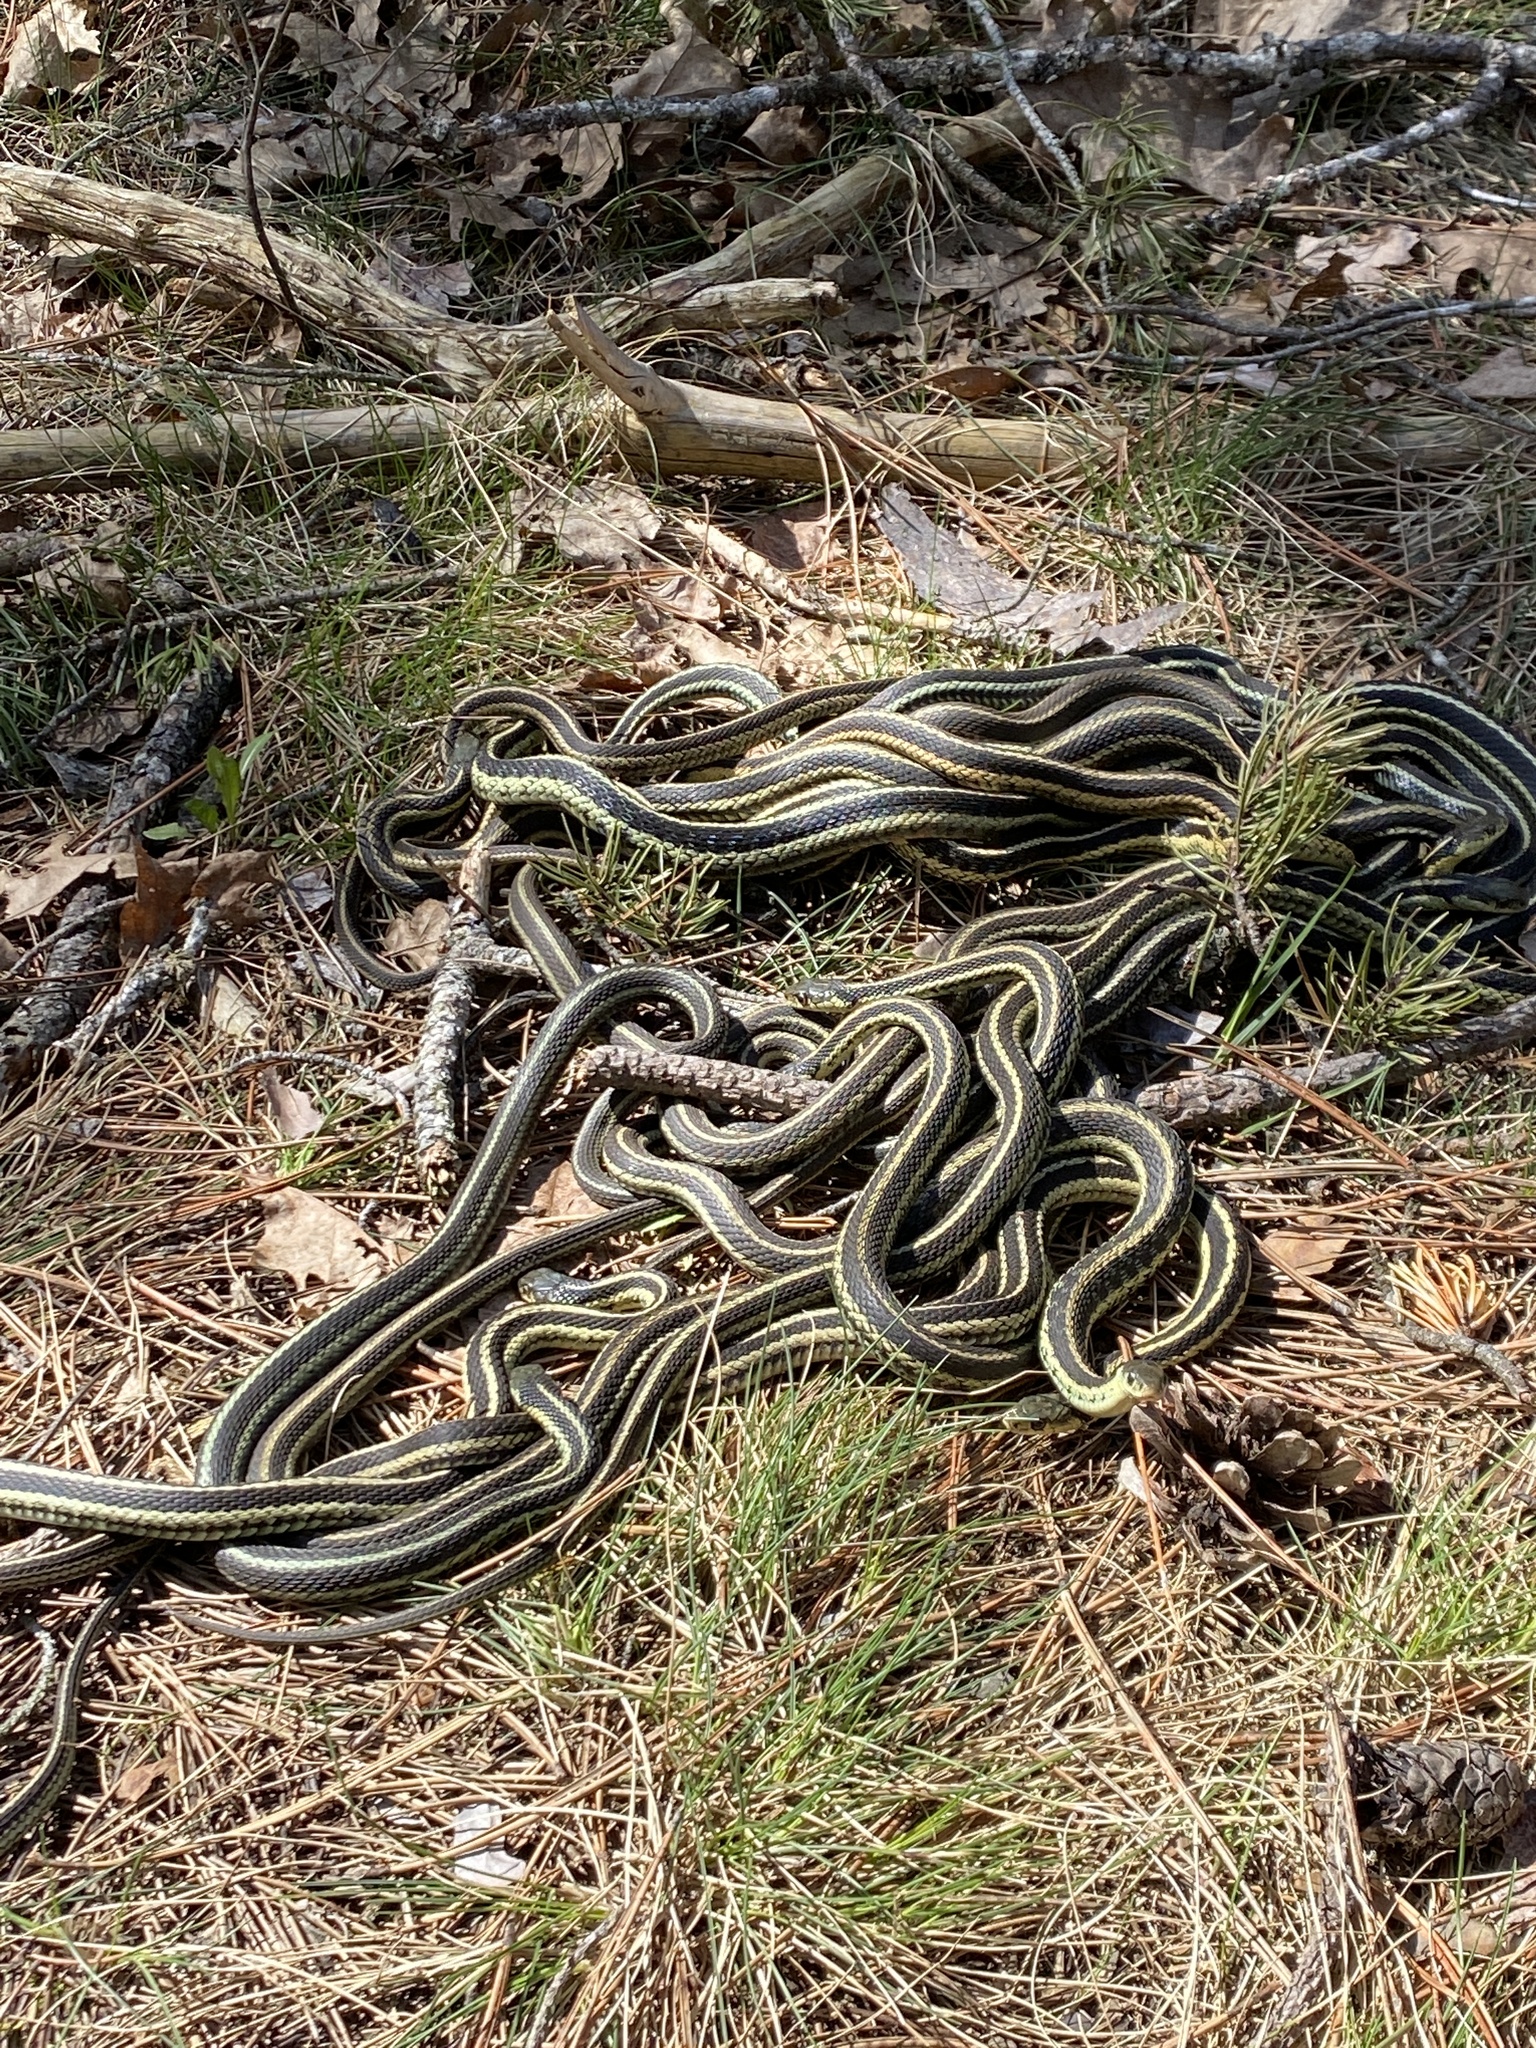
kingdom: Animalia
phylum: Chordata
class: Squamata
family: Colubridae
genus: Thamnophis
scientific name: Thamnophis sirtalis
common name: Common garter snake
